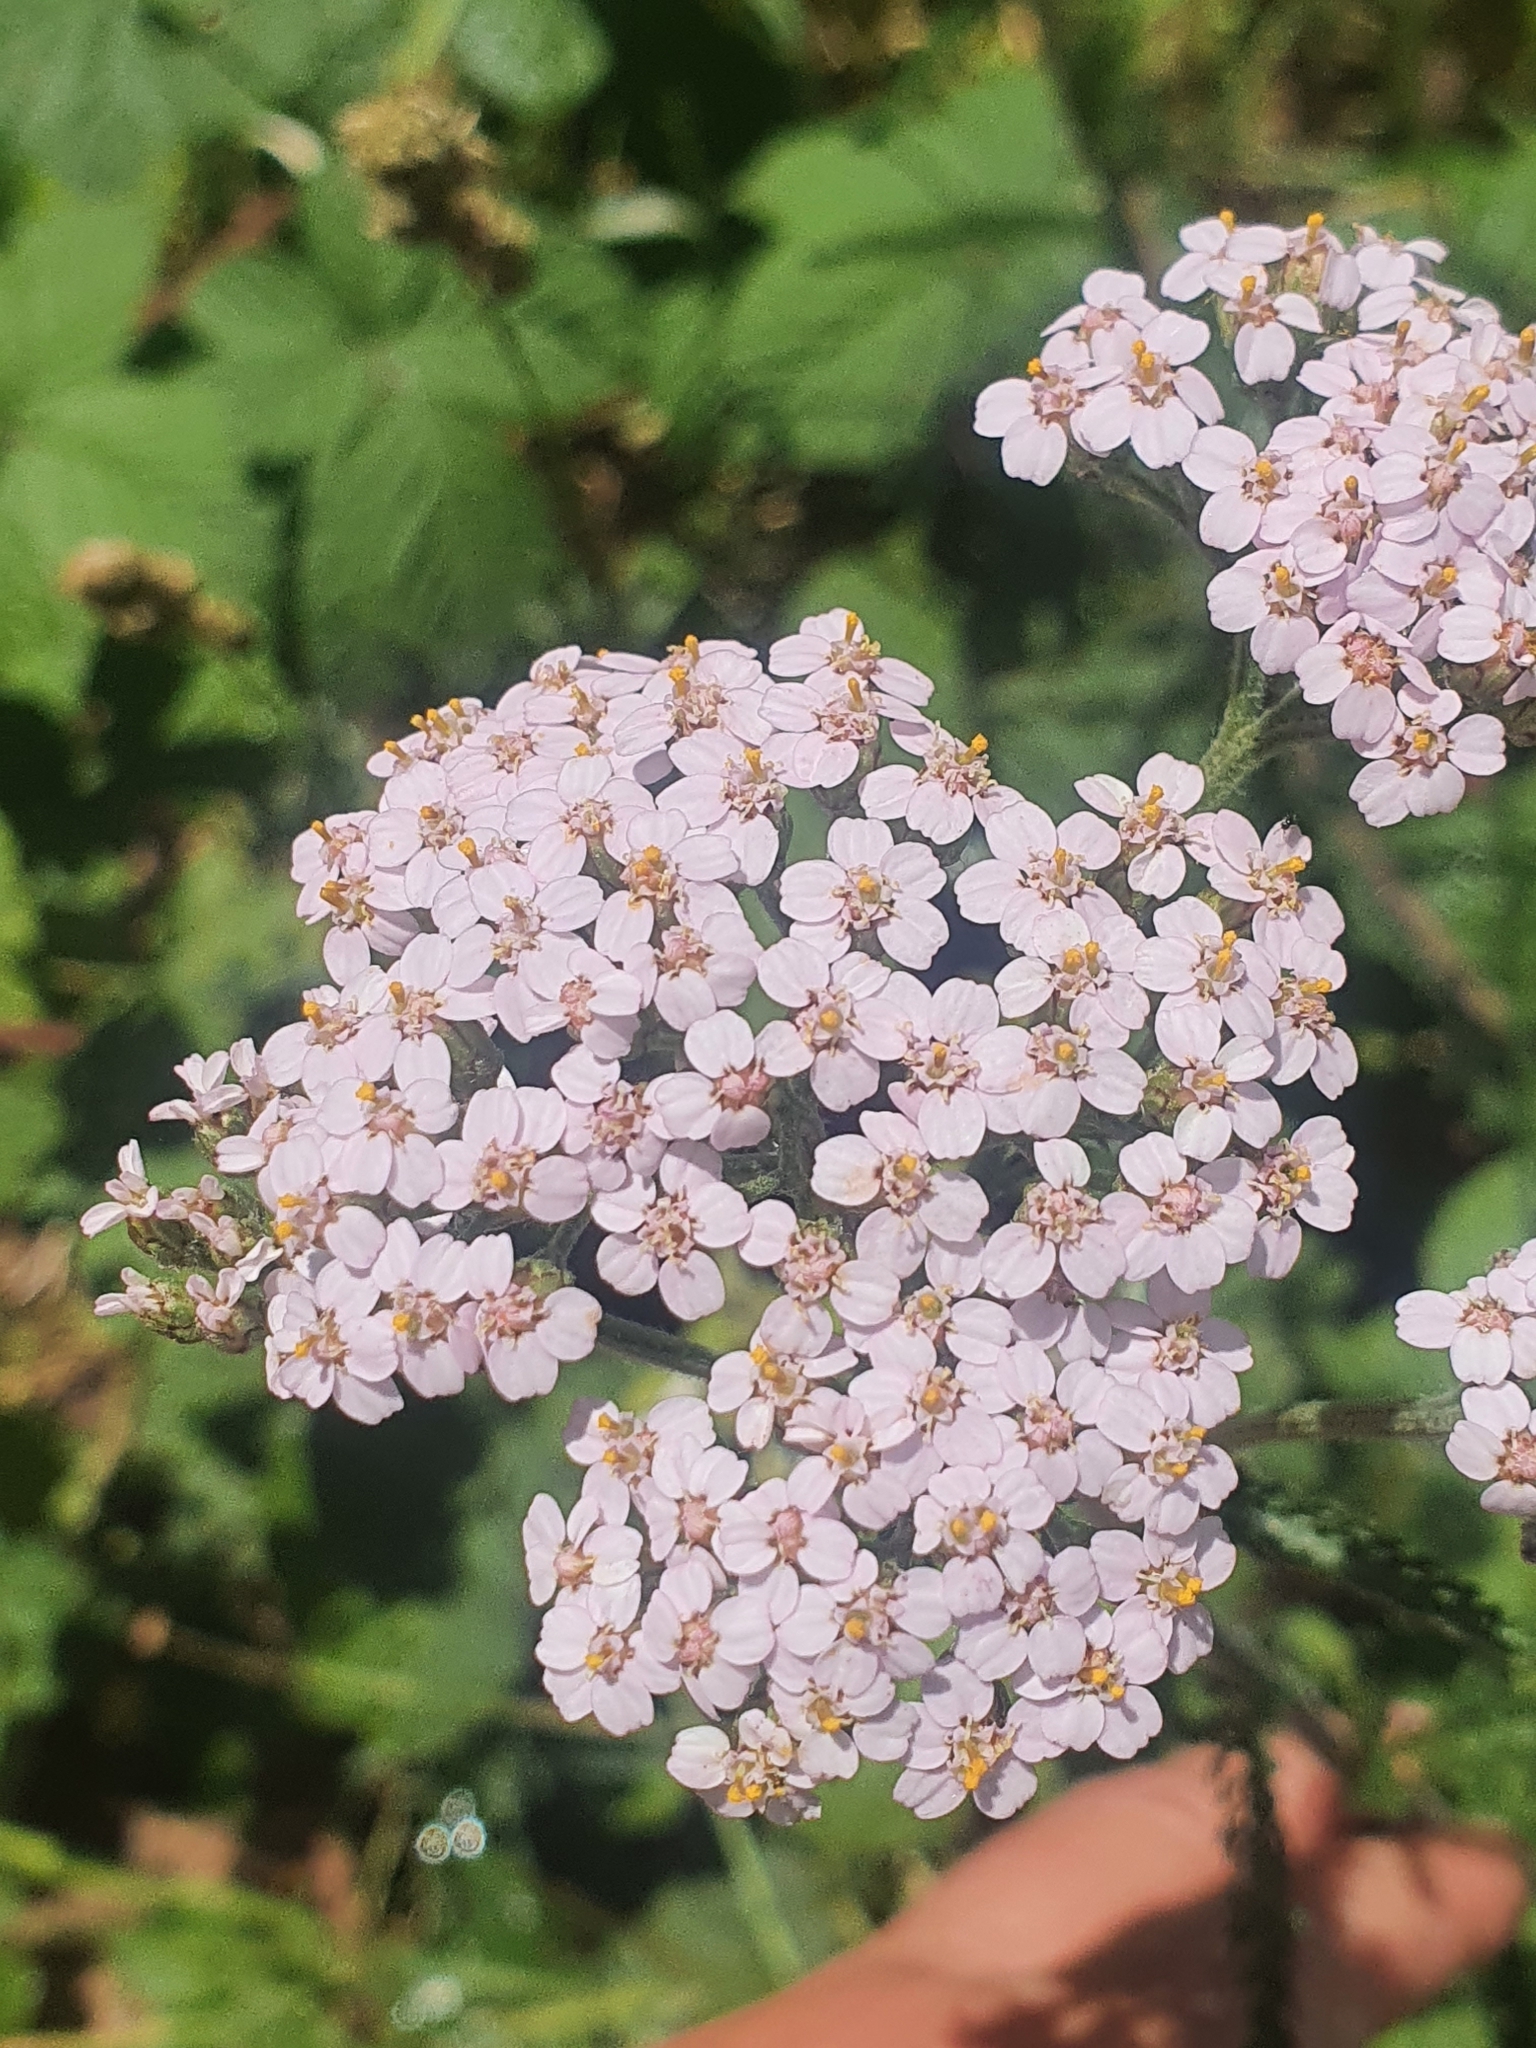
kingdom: Plantae
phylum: Tracheophyta
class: Magnoliopsida
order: Asterales
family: Asteraceae
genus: Achillea
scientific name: Achillea millefolium
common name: Yarrow
